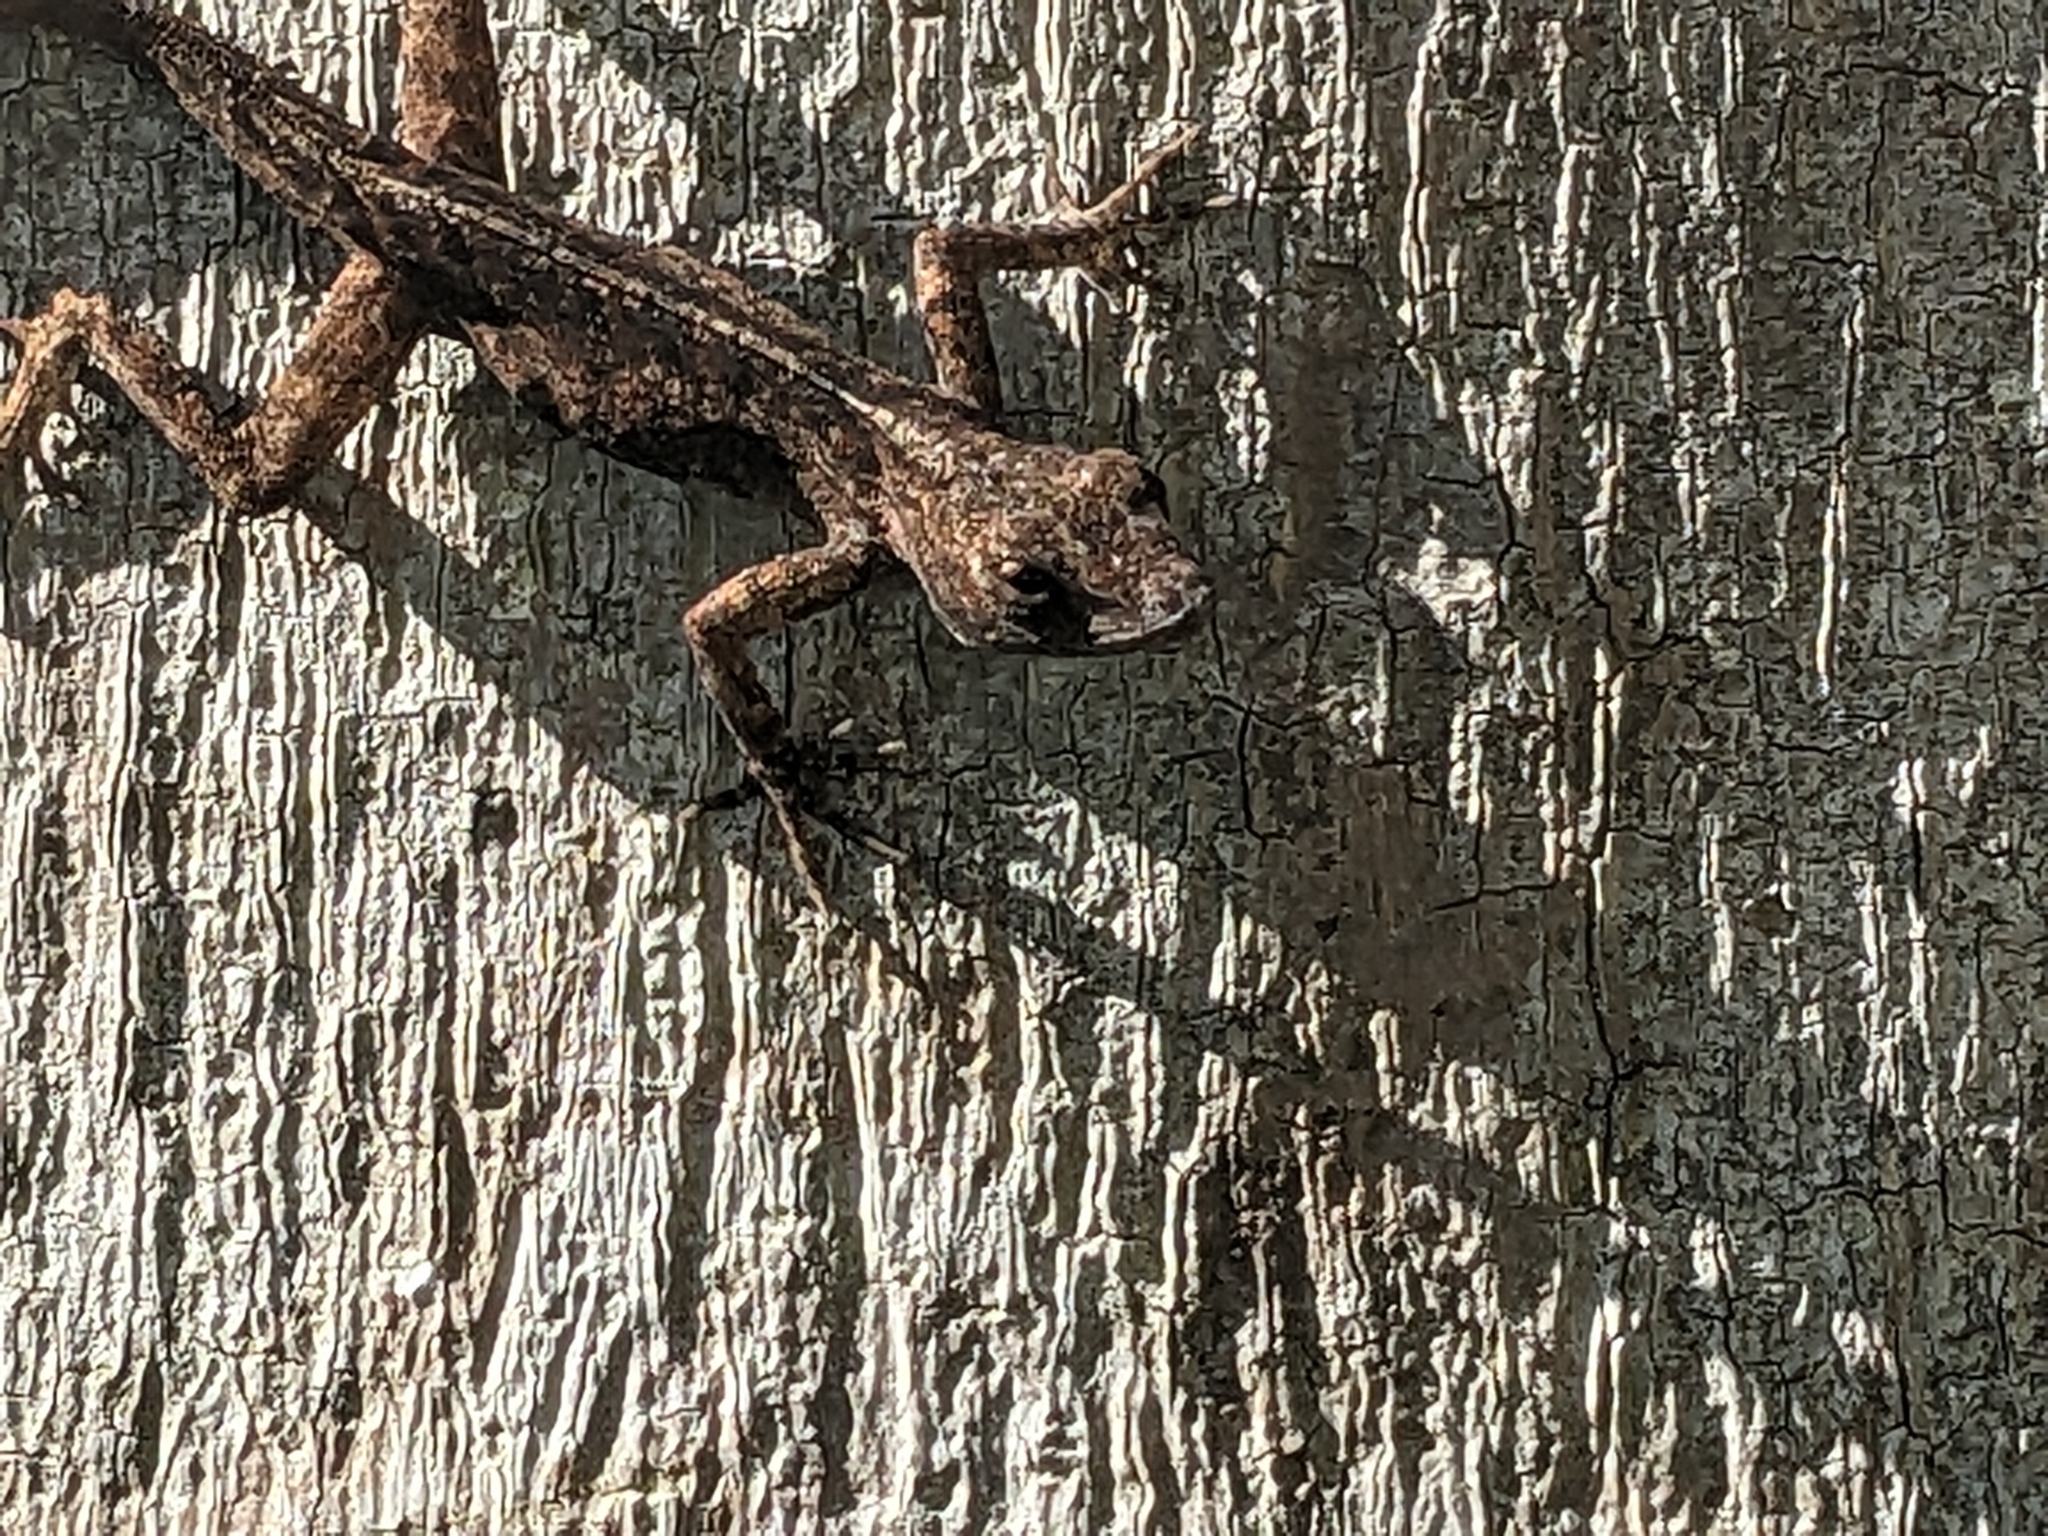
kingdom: Animalia
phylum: Chordata
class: Squamata
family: Dactyloidae
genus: Anolis
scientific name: Anolis sagrei
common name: Brown anole
